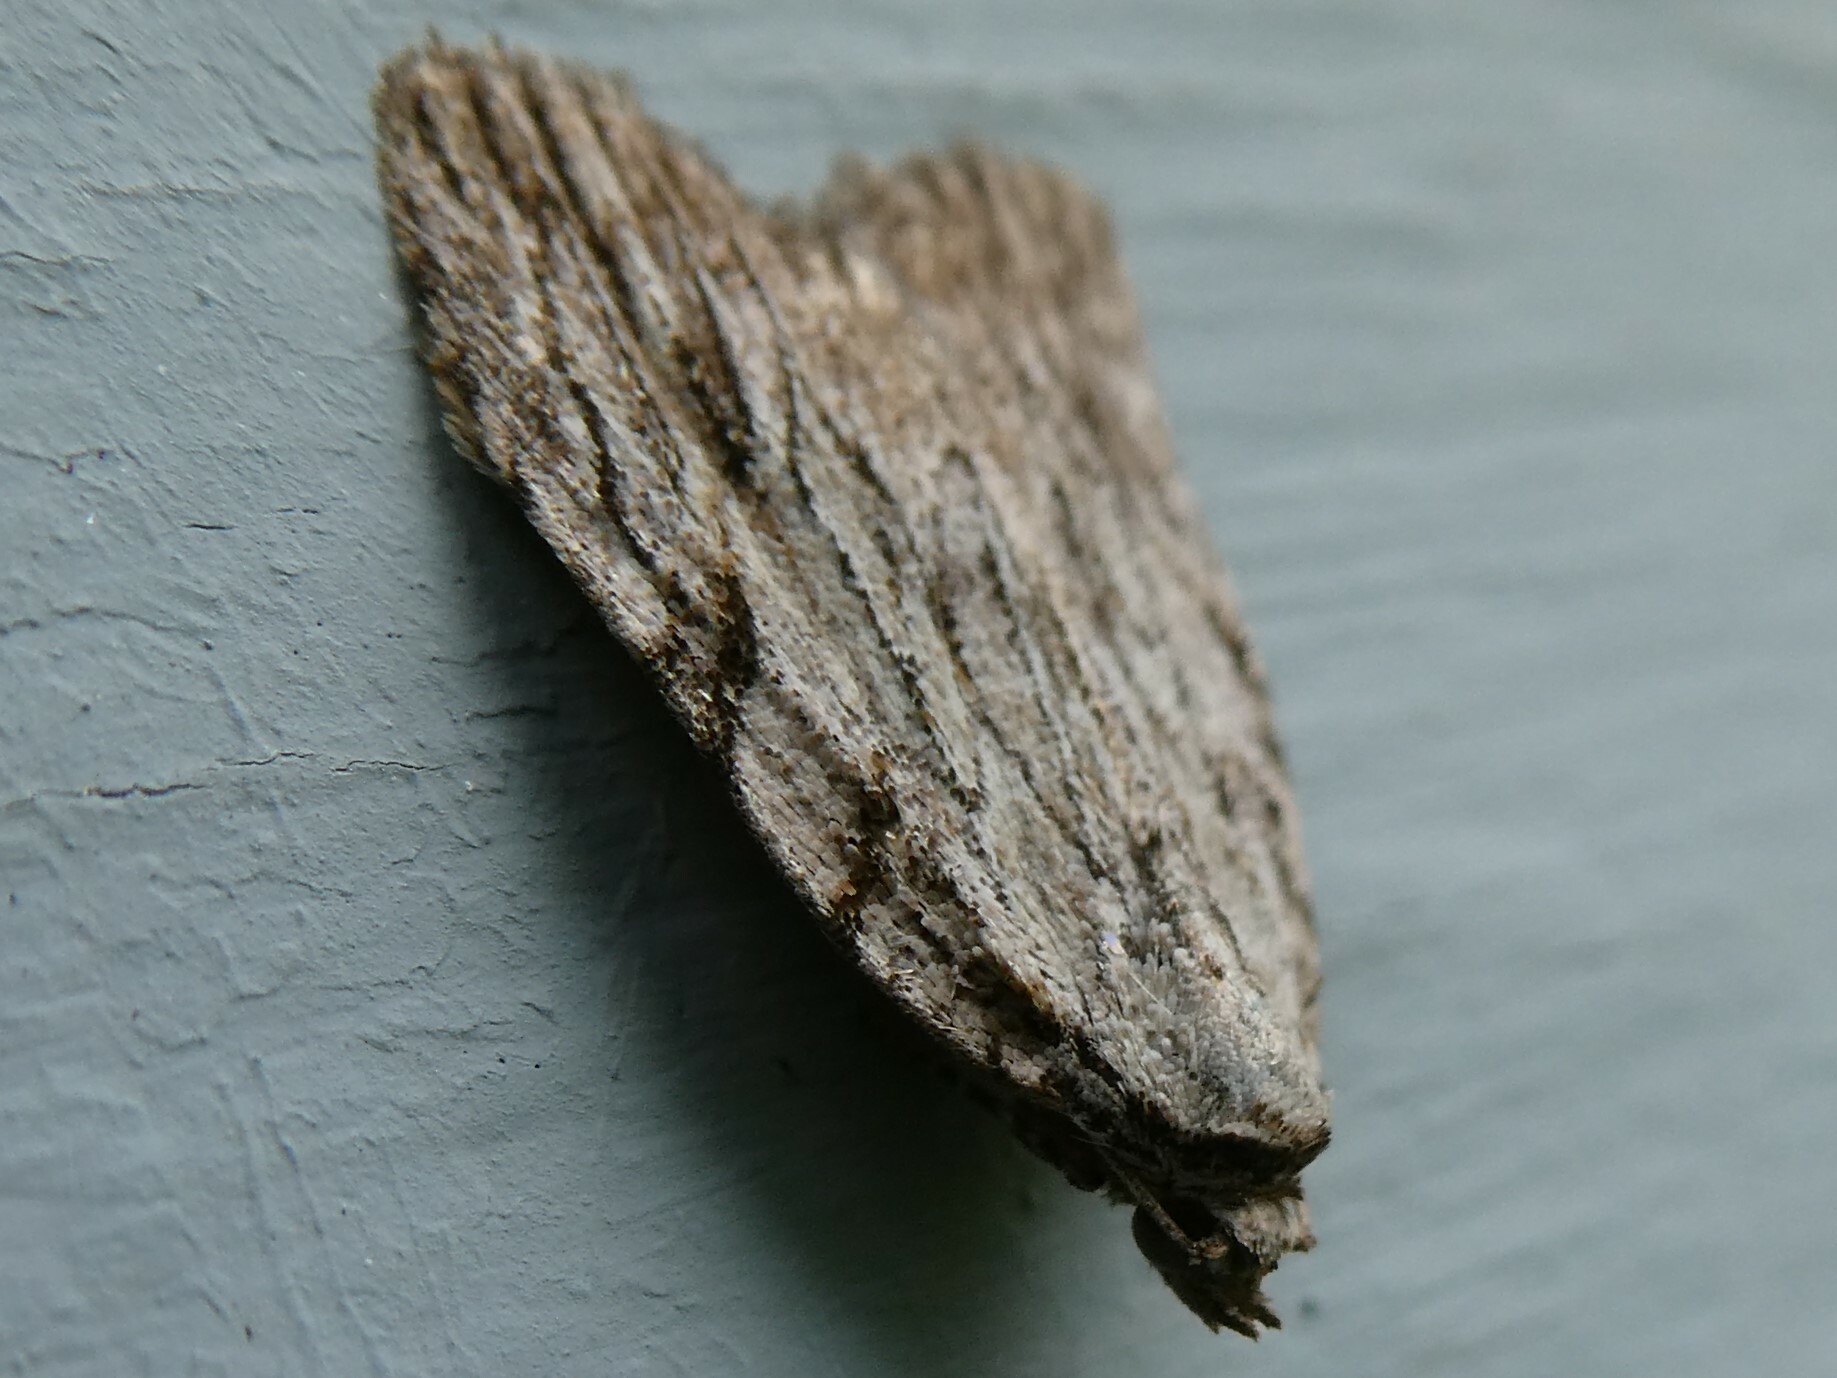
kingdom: Animalia
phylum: Arthropoda
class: Insecta
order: Lepidoptera
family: Noctuidae
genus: Balsa
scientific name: Balsa tristrigella
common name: Three-lined balsa moth
